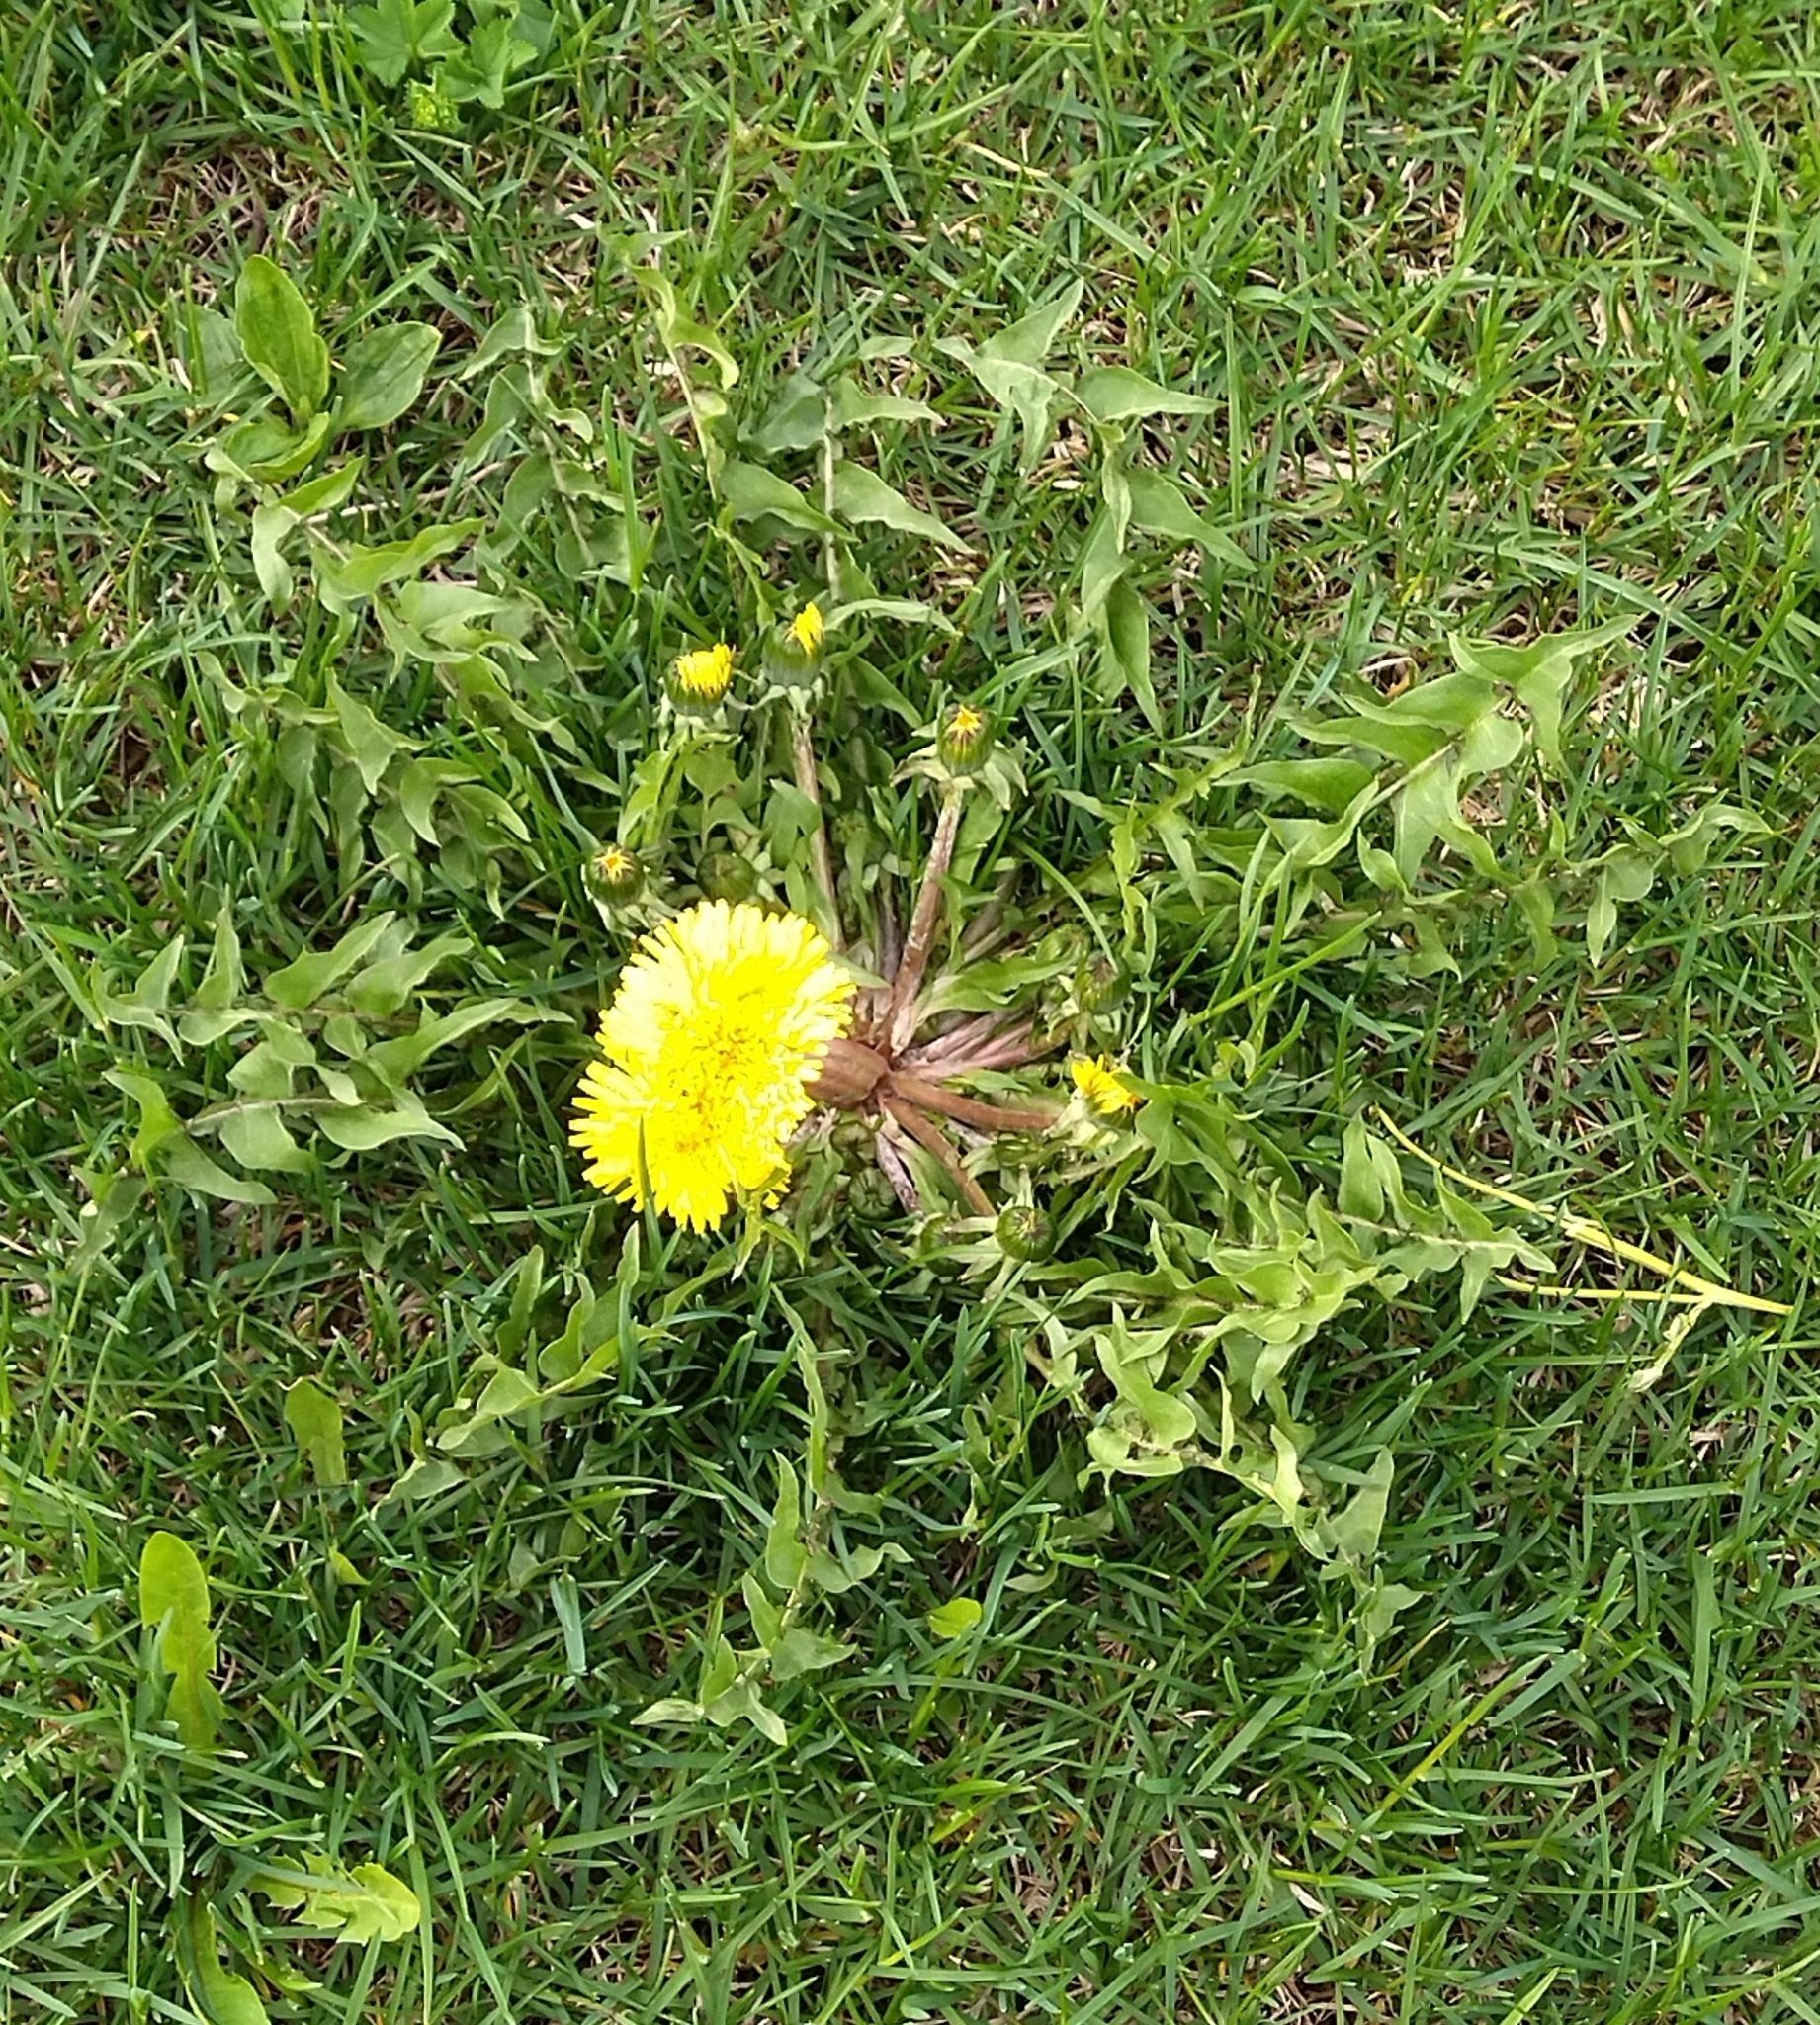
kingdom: Plantae
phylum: Tracheophyta
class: Magnoliopsida
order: Asterales
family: Asteraceae
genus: Taraxacum
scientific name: Taraxacum officinale
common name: Common dandelion
